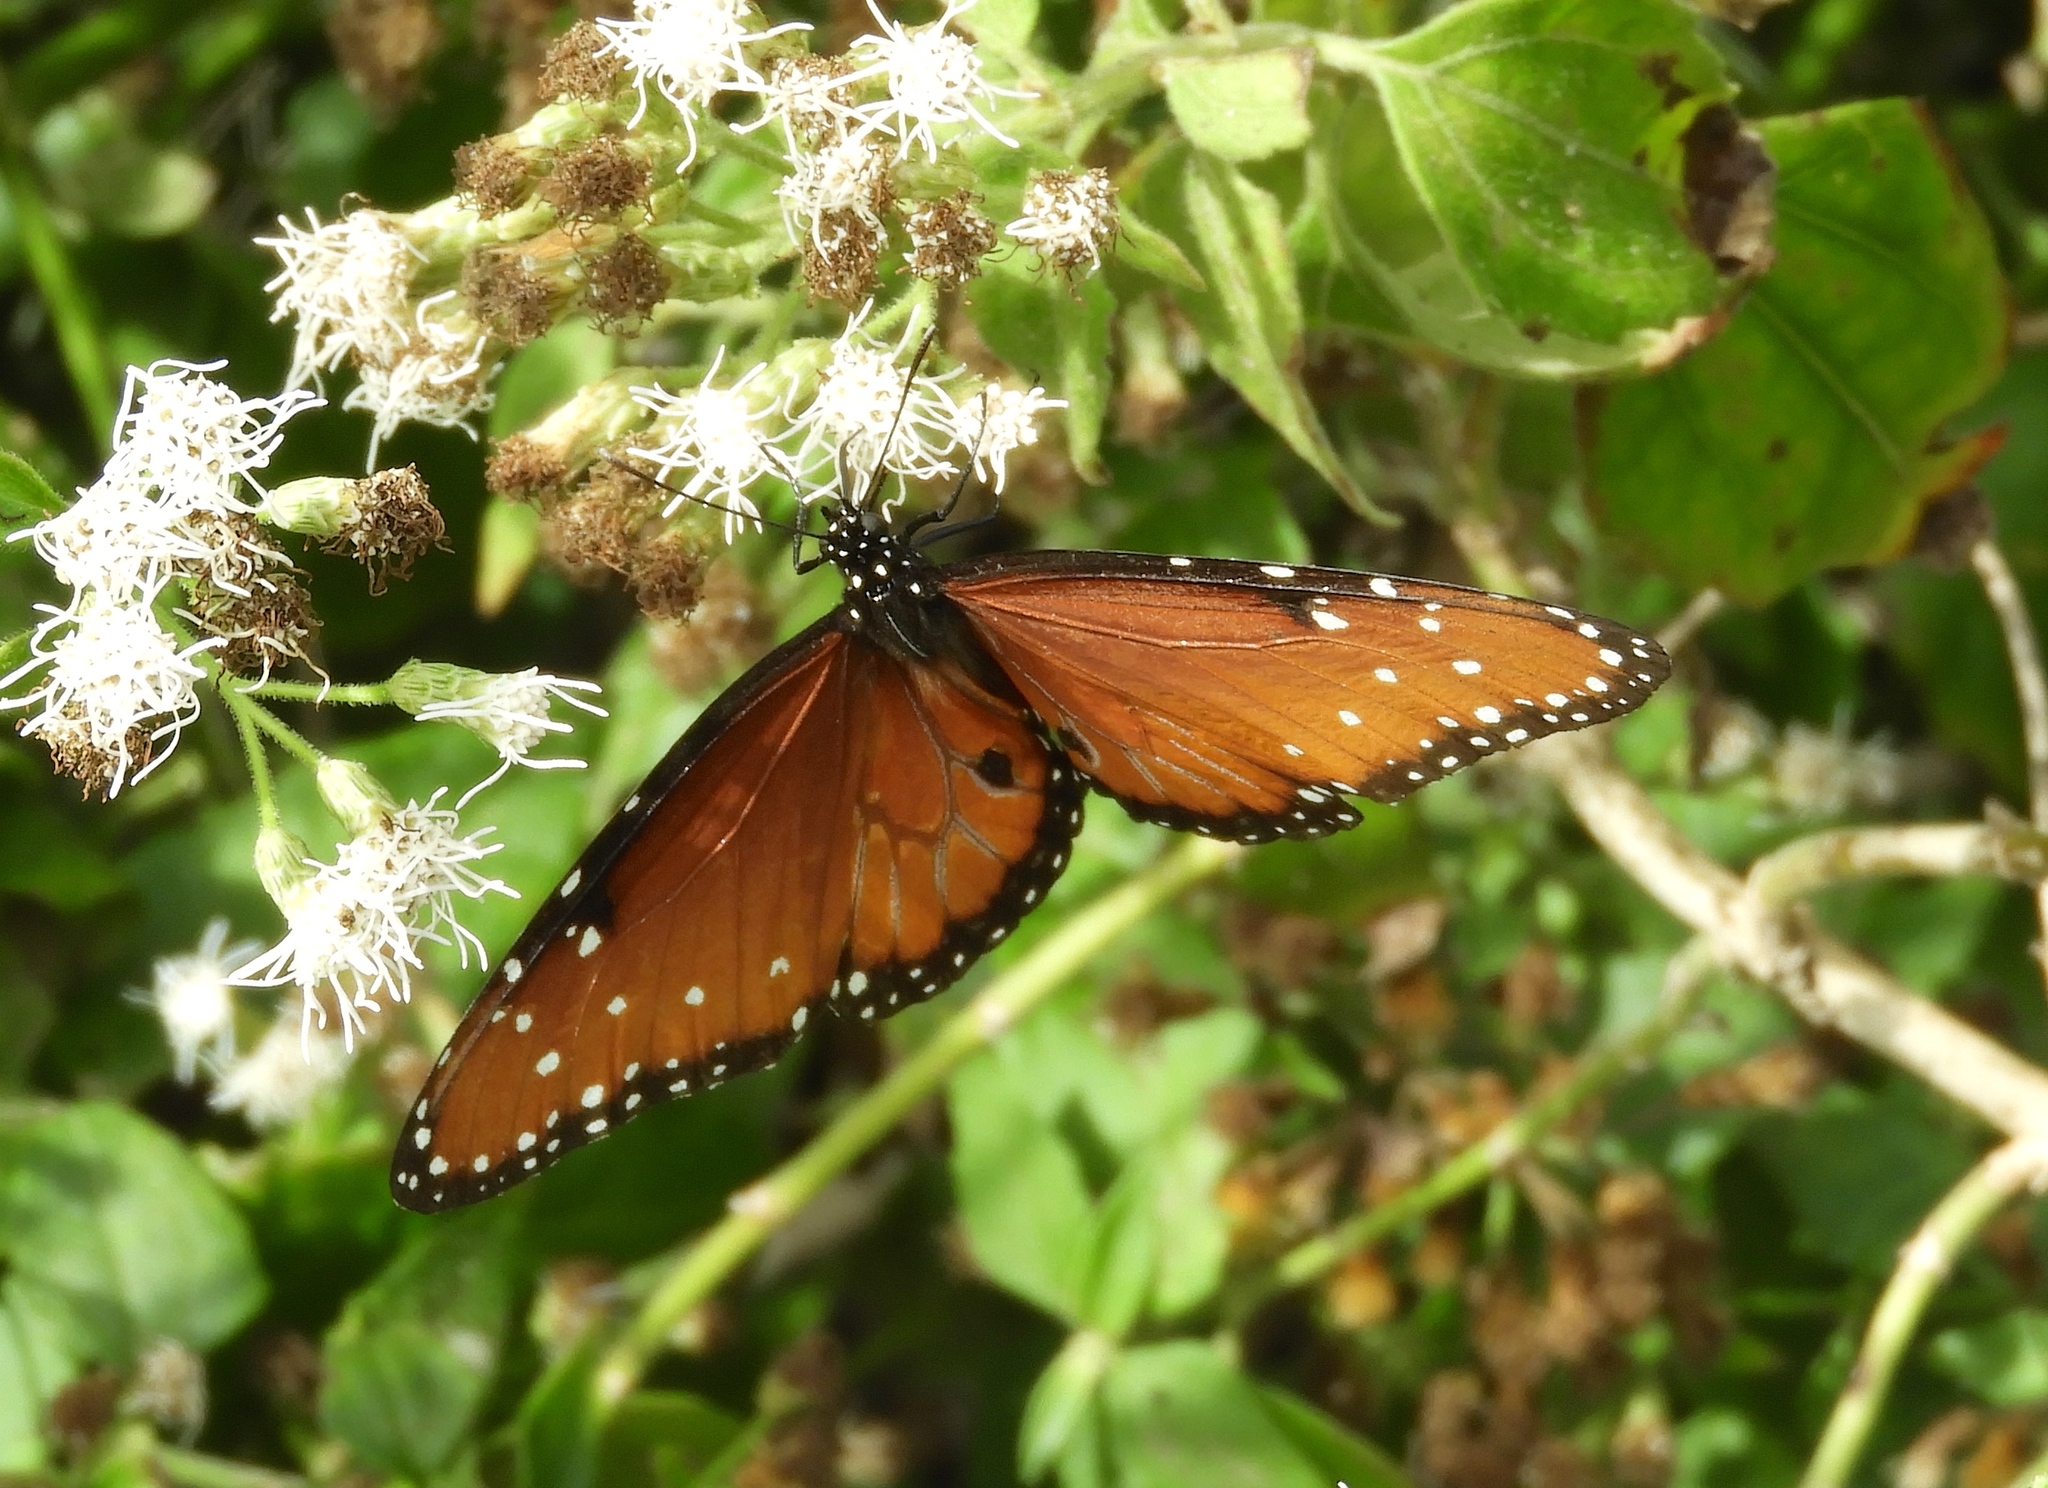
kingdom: Animalia
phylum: Arthropoda
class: Insecta
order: Lepidoptera
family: Nymphalidae
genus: Danaus
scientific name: Danaus gilippus
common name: Queen
